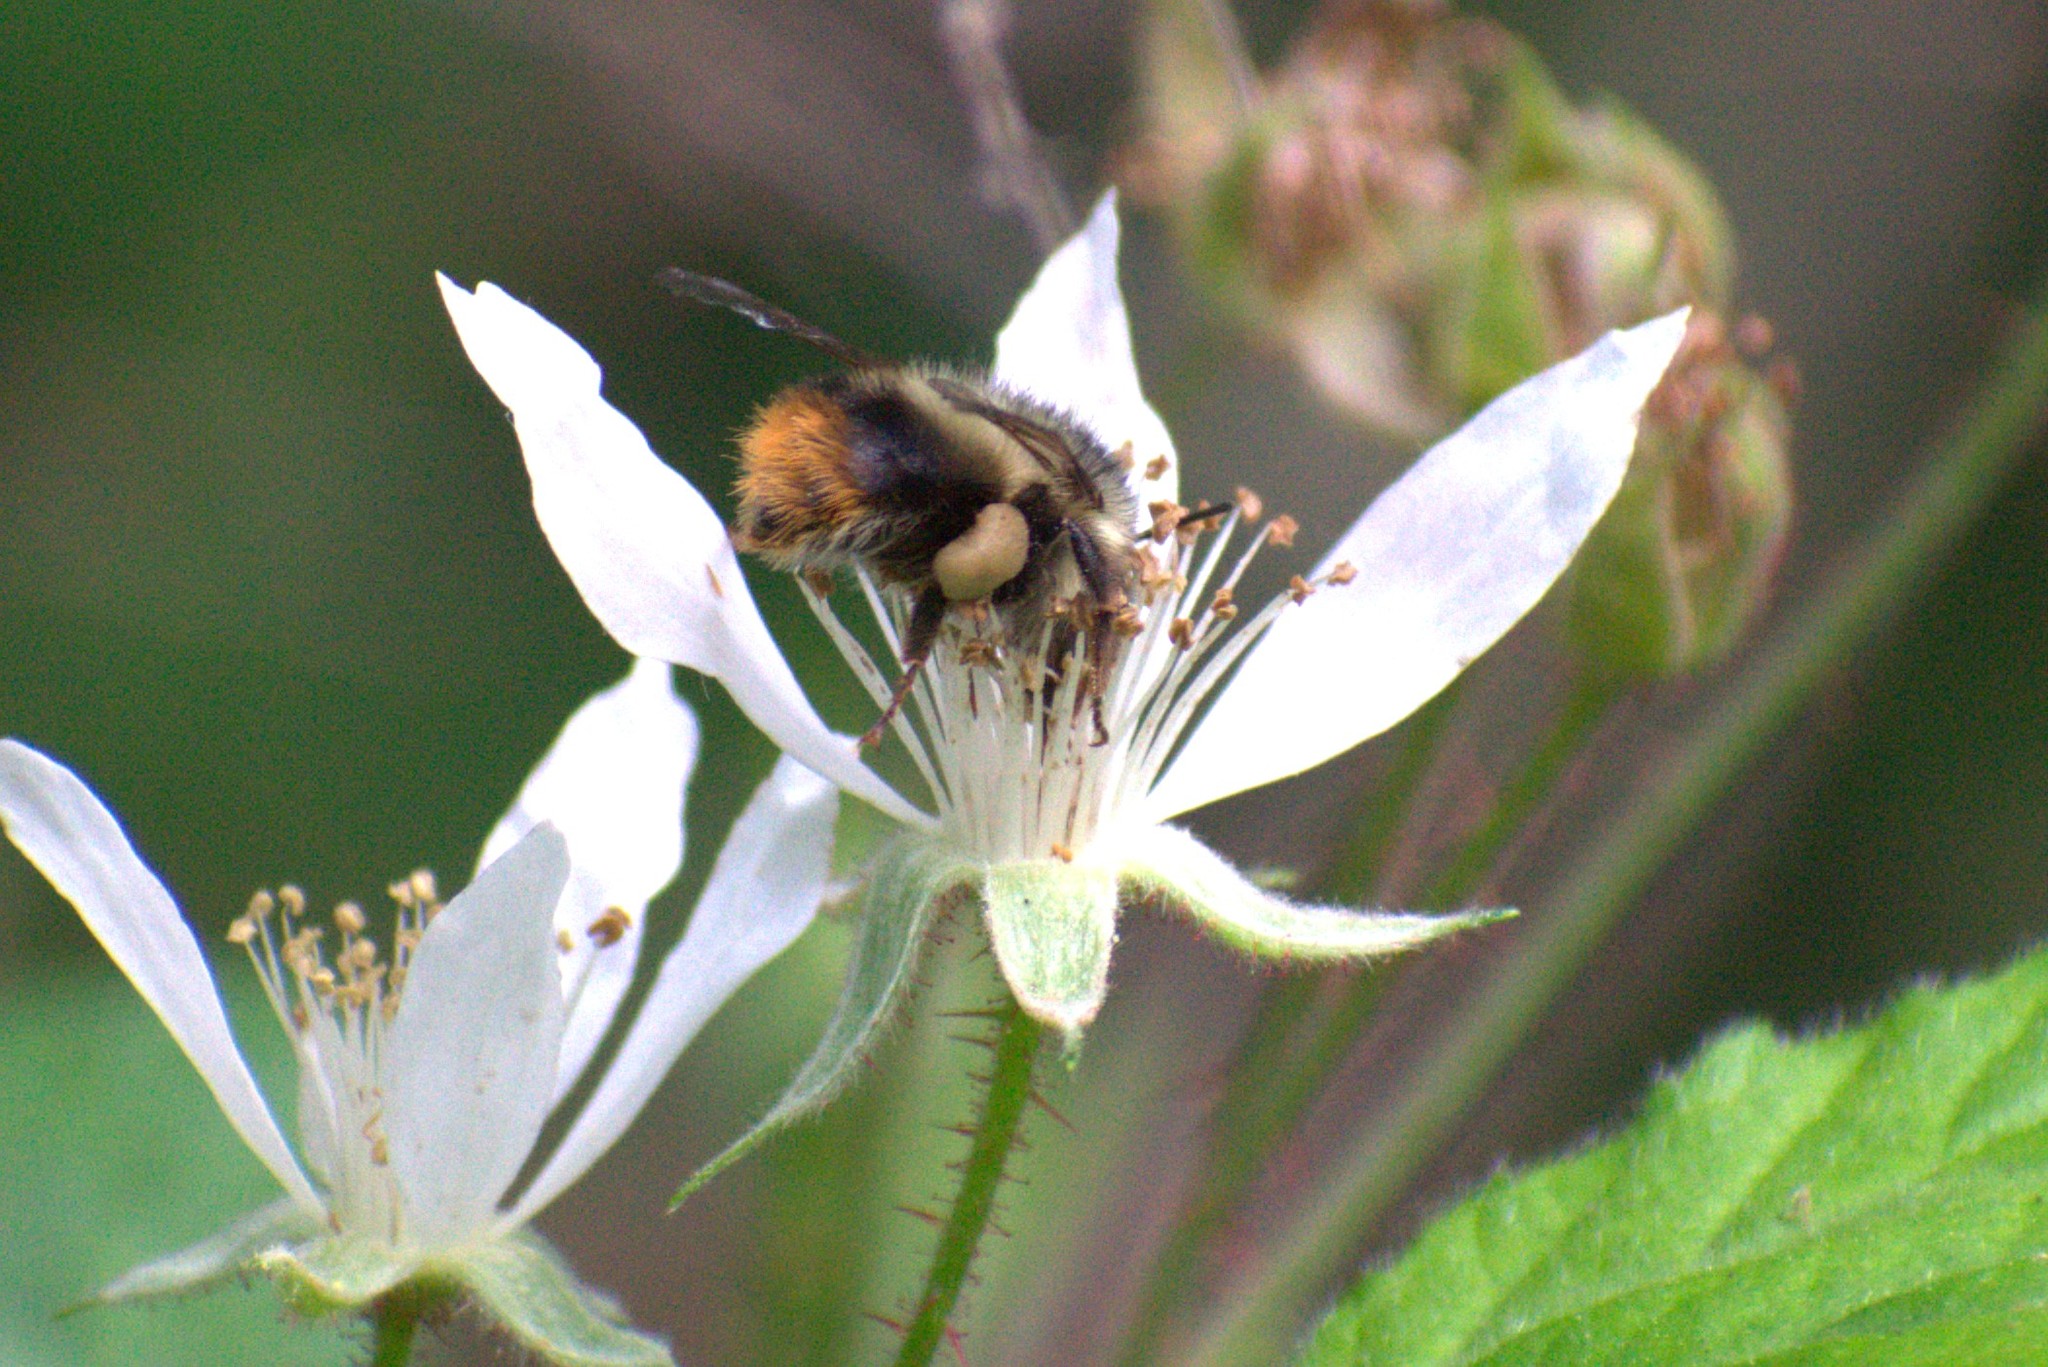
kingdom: Animalia
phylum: Arthropoda
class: Insecta
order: Hymenoptera
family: Apidae
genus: Bombus
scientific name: Bombus mixtus
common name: Fuzzy-horned bumble bee
